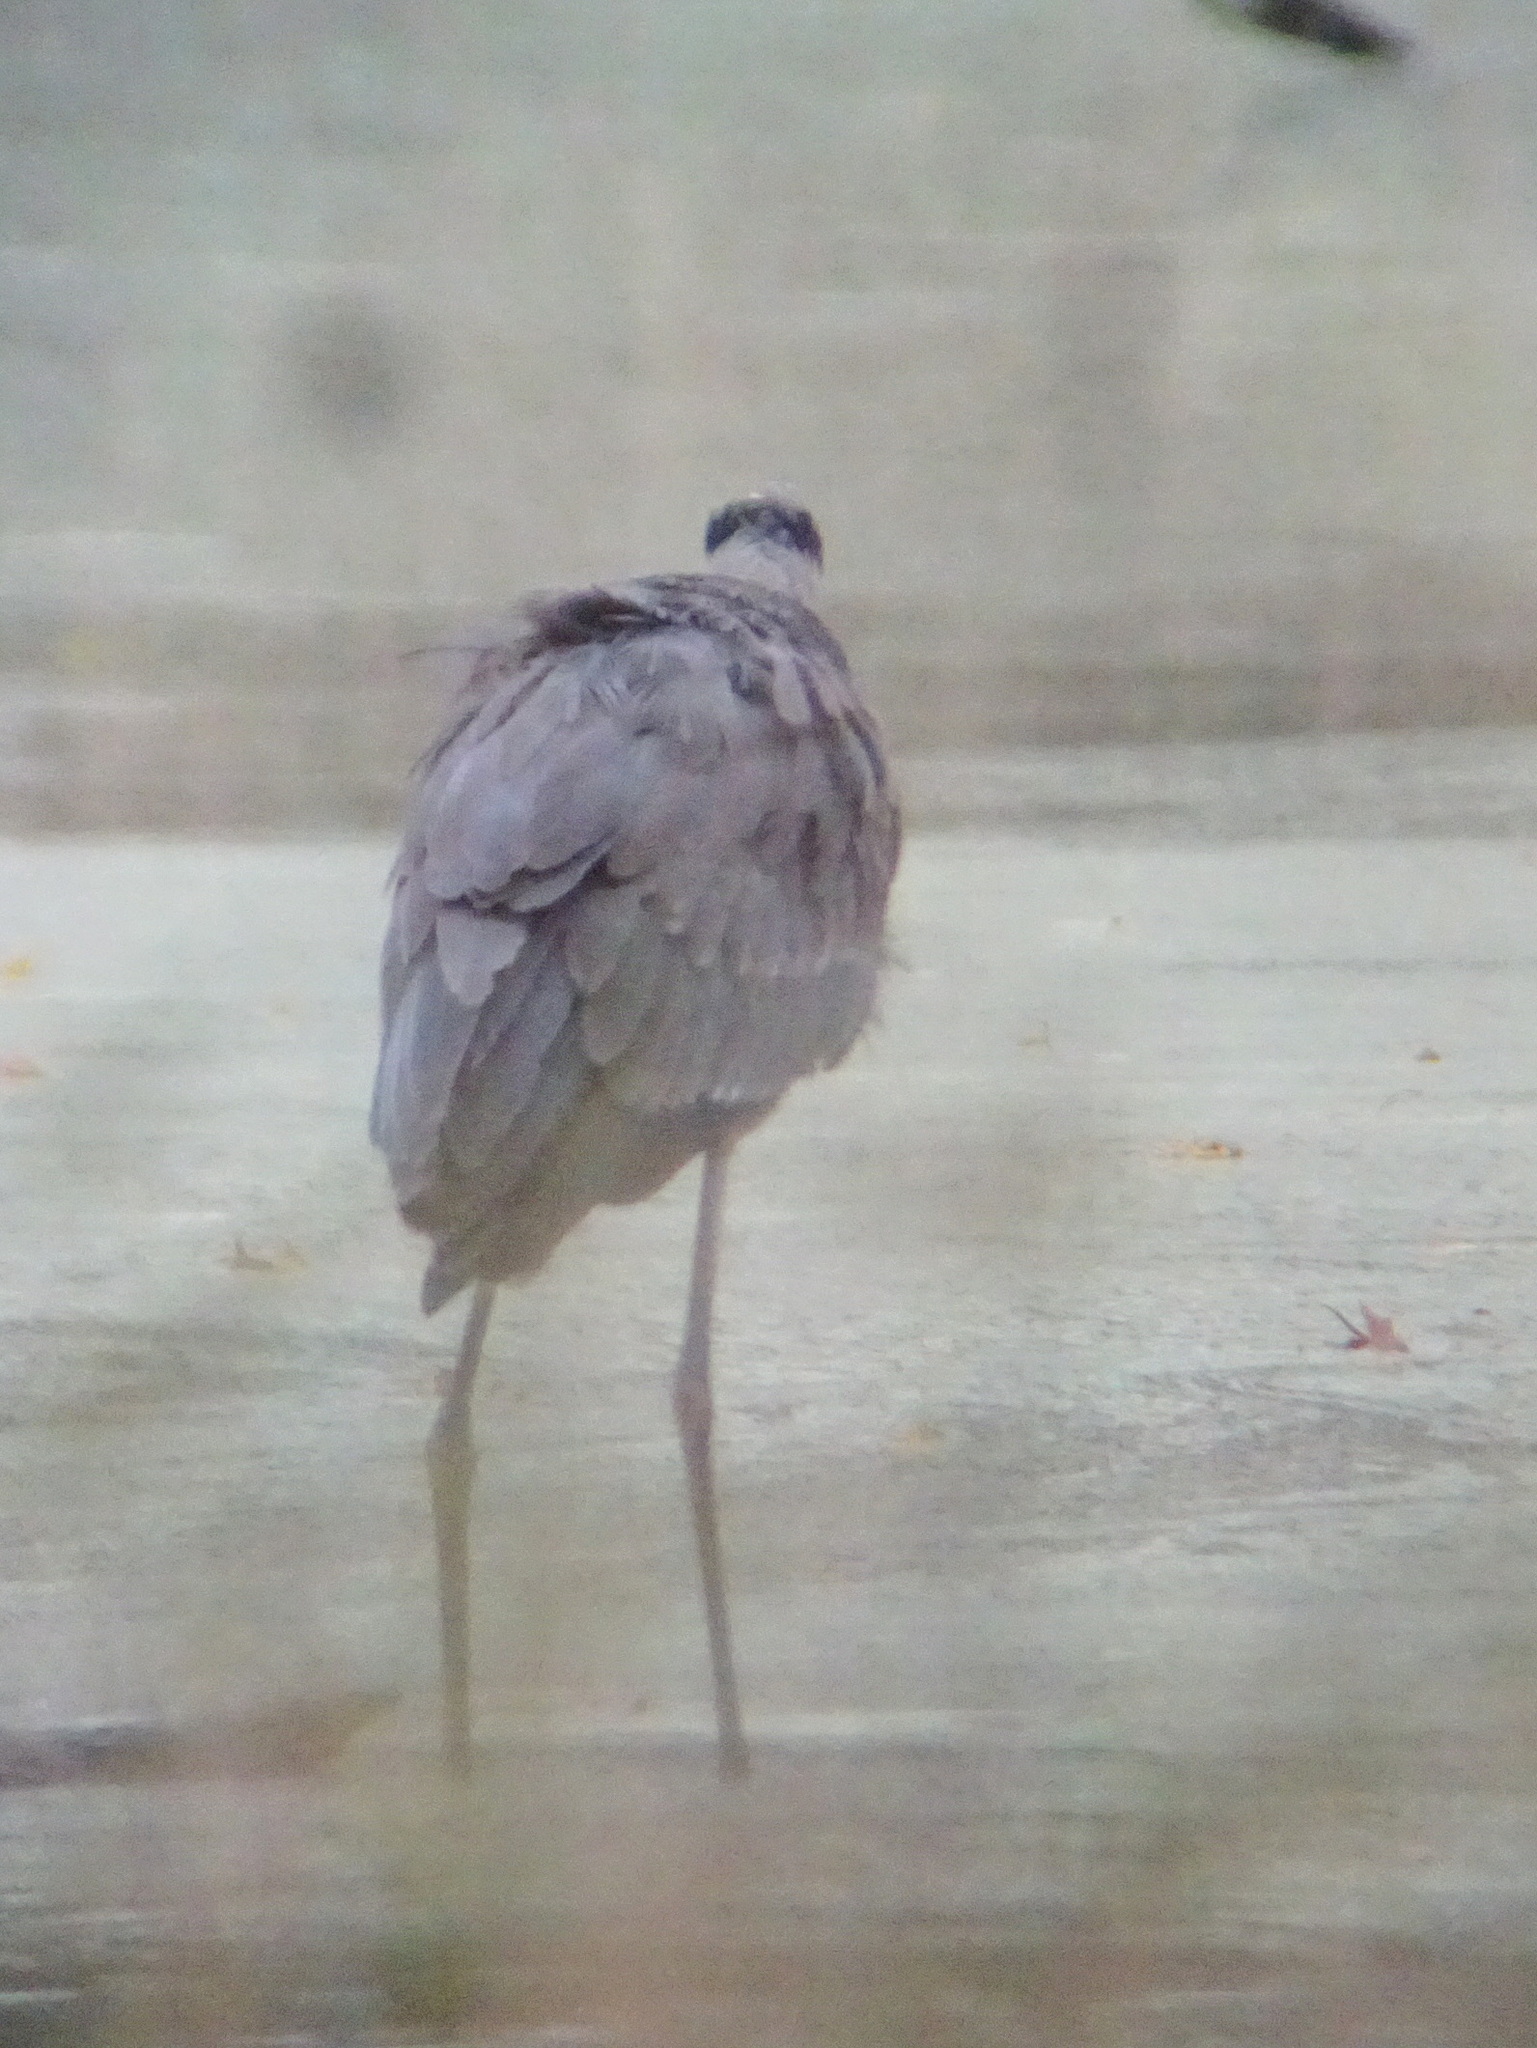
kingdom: Animalia
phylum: Chordata
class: Aves
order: Pelecaniformes
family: Ardeidae
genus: Ardea
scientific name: Ardea herodias
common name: Great blue heron
